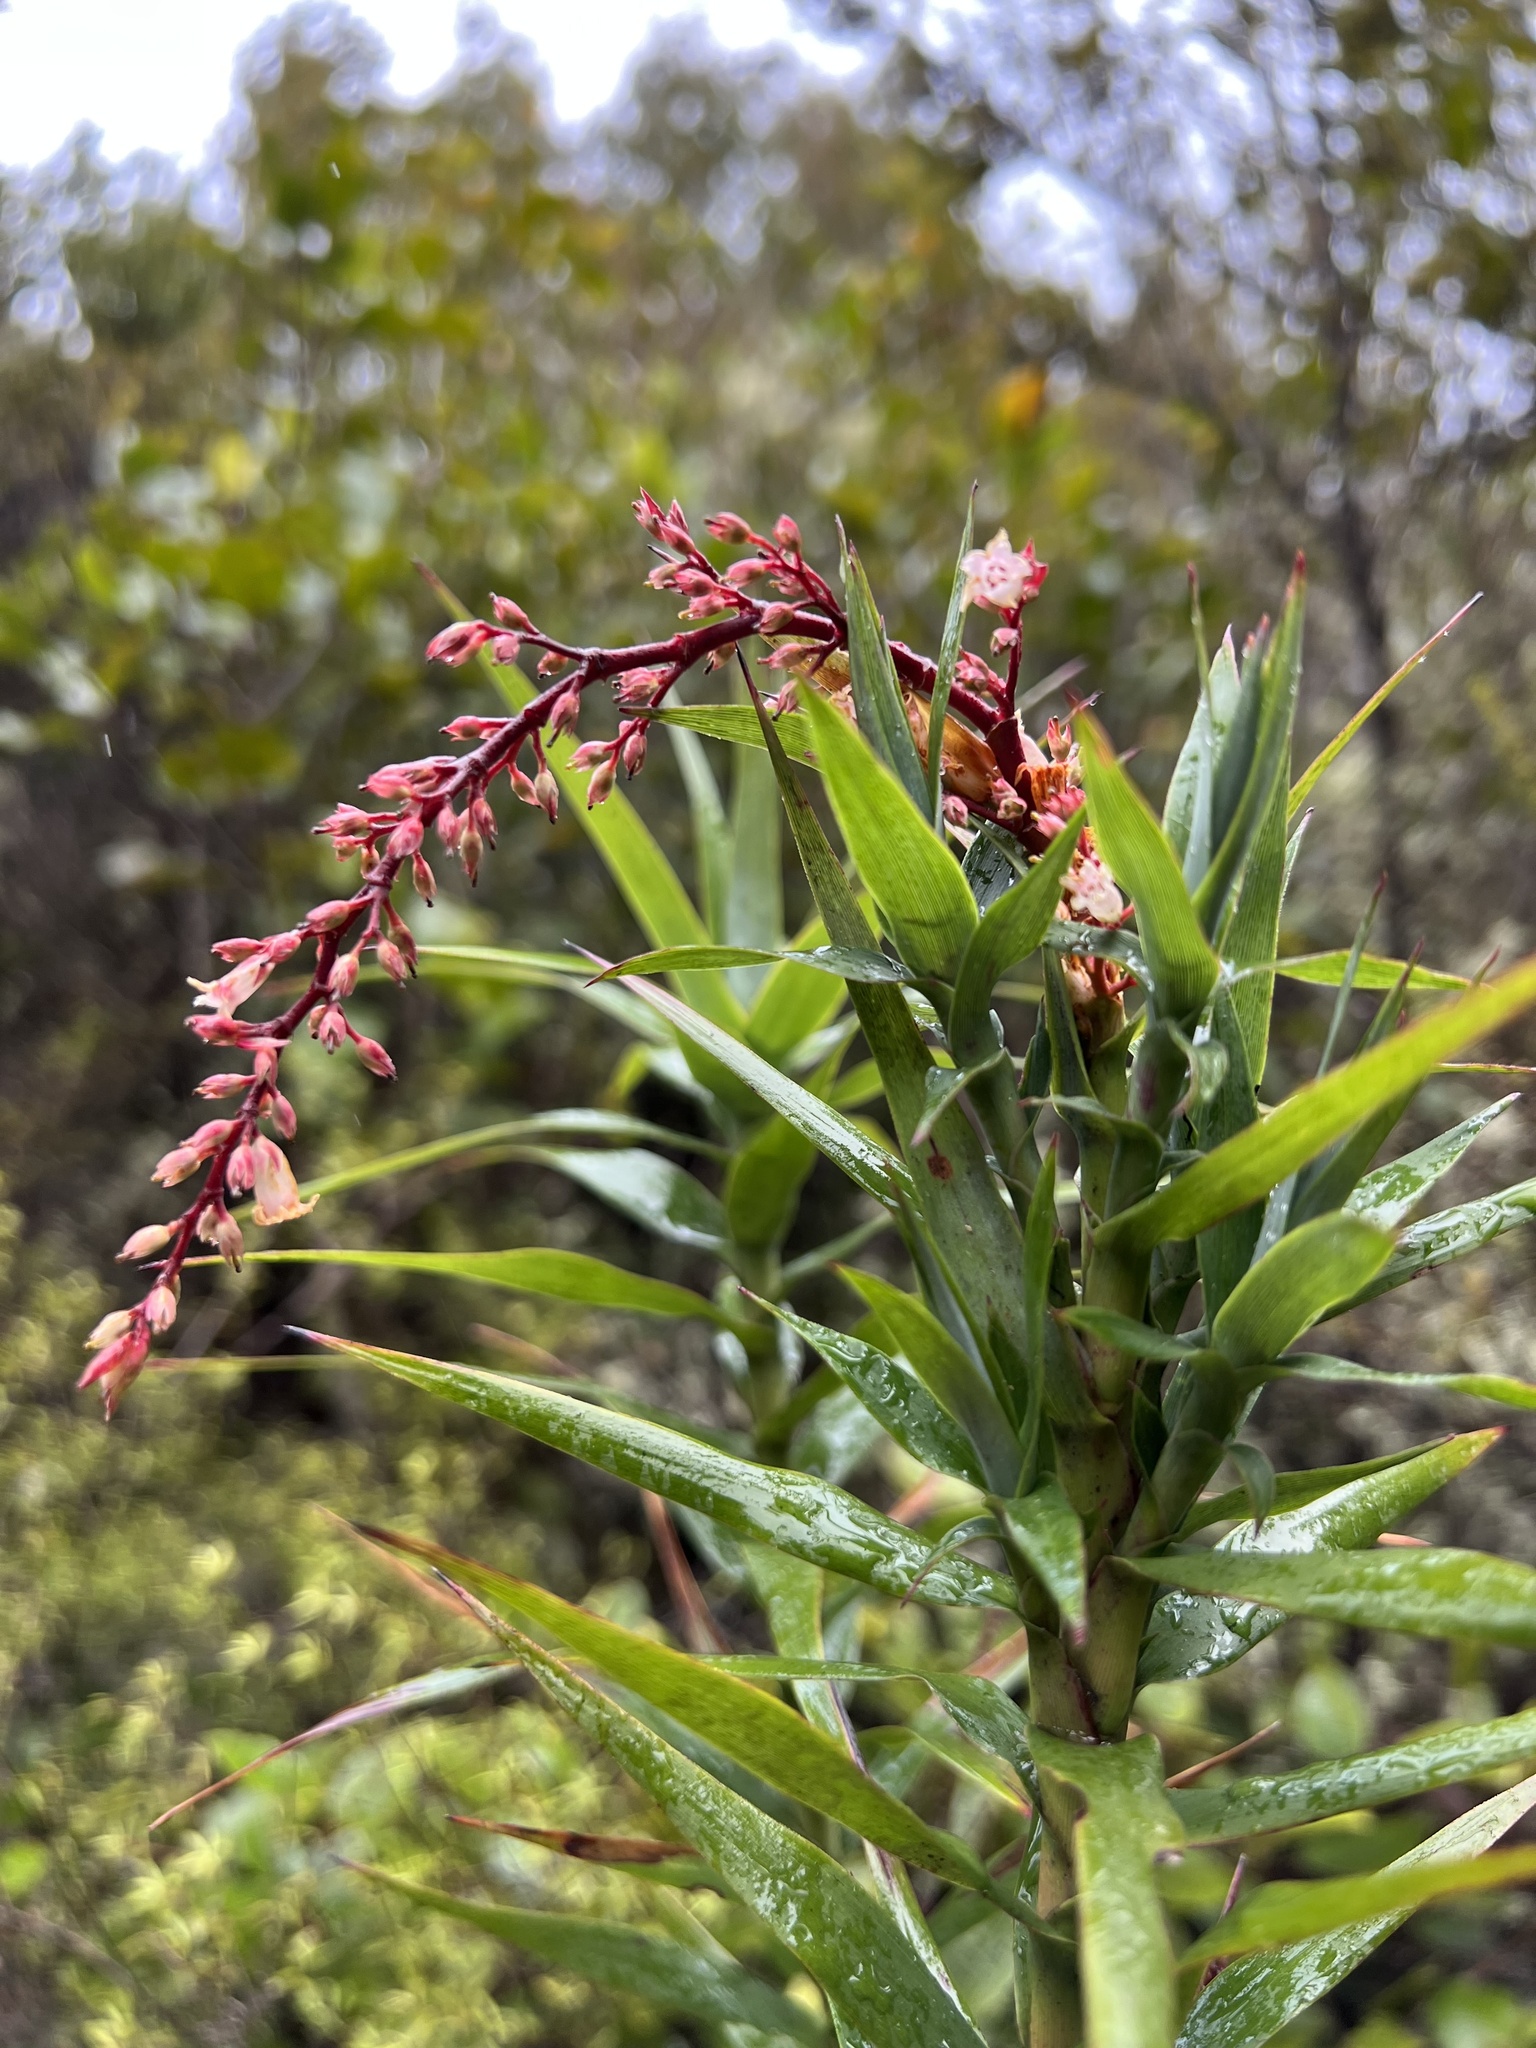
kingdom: Plantae
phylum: Tracheophyta
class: Magnoliopsida
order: Ericales
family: Ericaceae
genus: Dracophyllum
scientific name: Dracophyllum strictum
